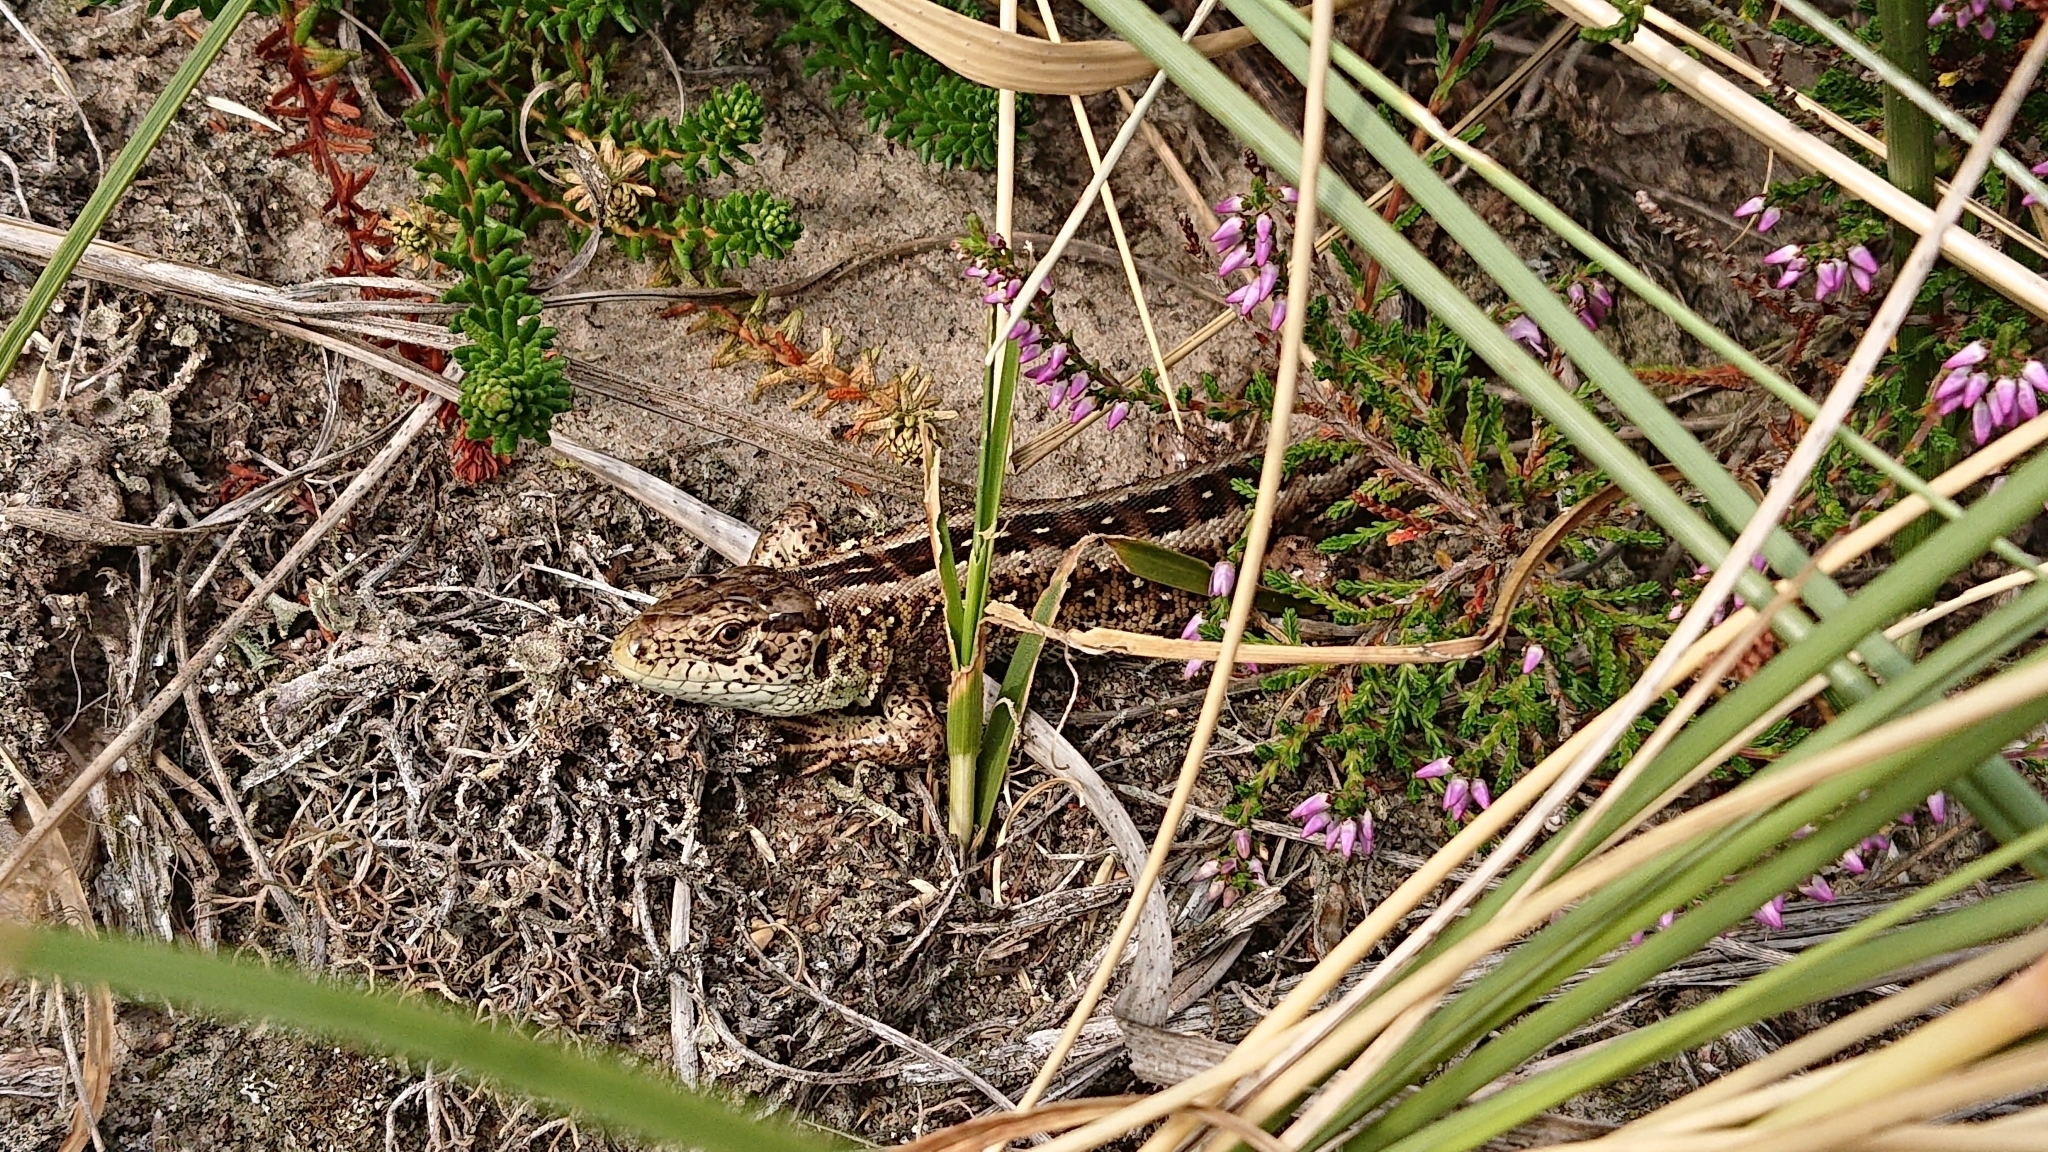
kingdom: Animalia
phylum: Chordata
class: Squamata
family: Lacertidae
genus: Lacerta
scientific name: Lacerta agilis
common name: Sand lizard
